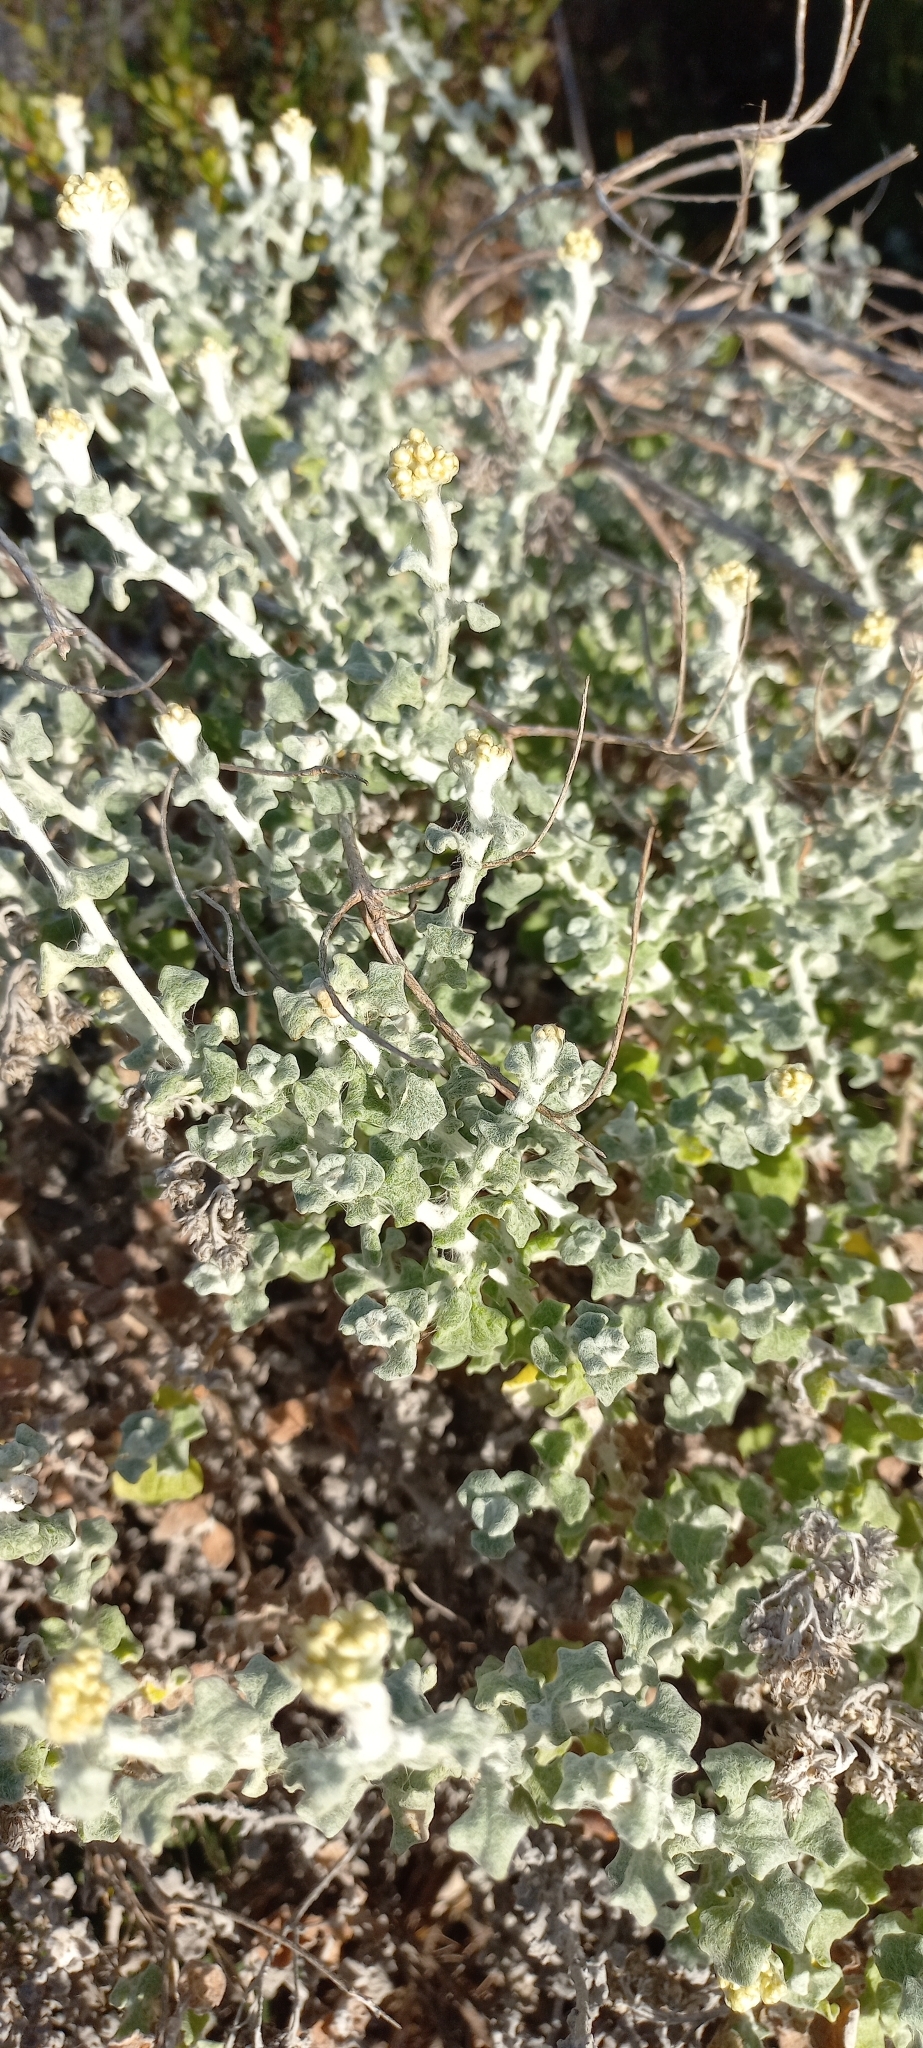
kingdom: Plantae
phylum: Tracheophyta
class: Magnoliopsida
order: Asterales
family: Asteraceae
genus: Helichrysum
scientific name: Helichrysum patulum
